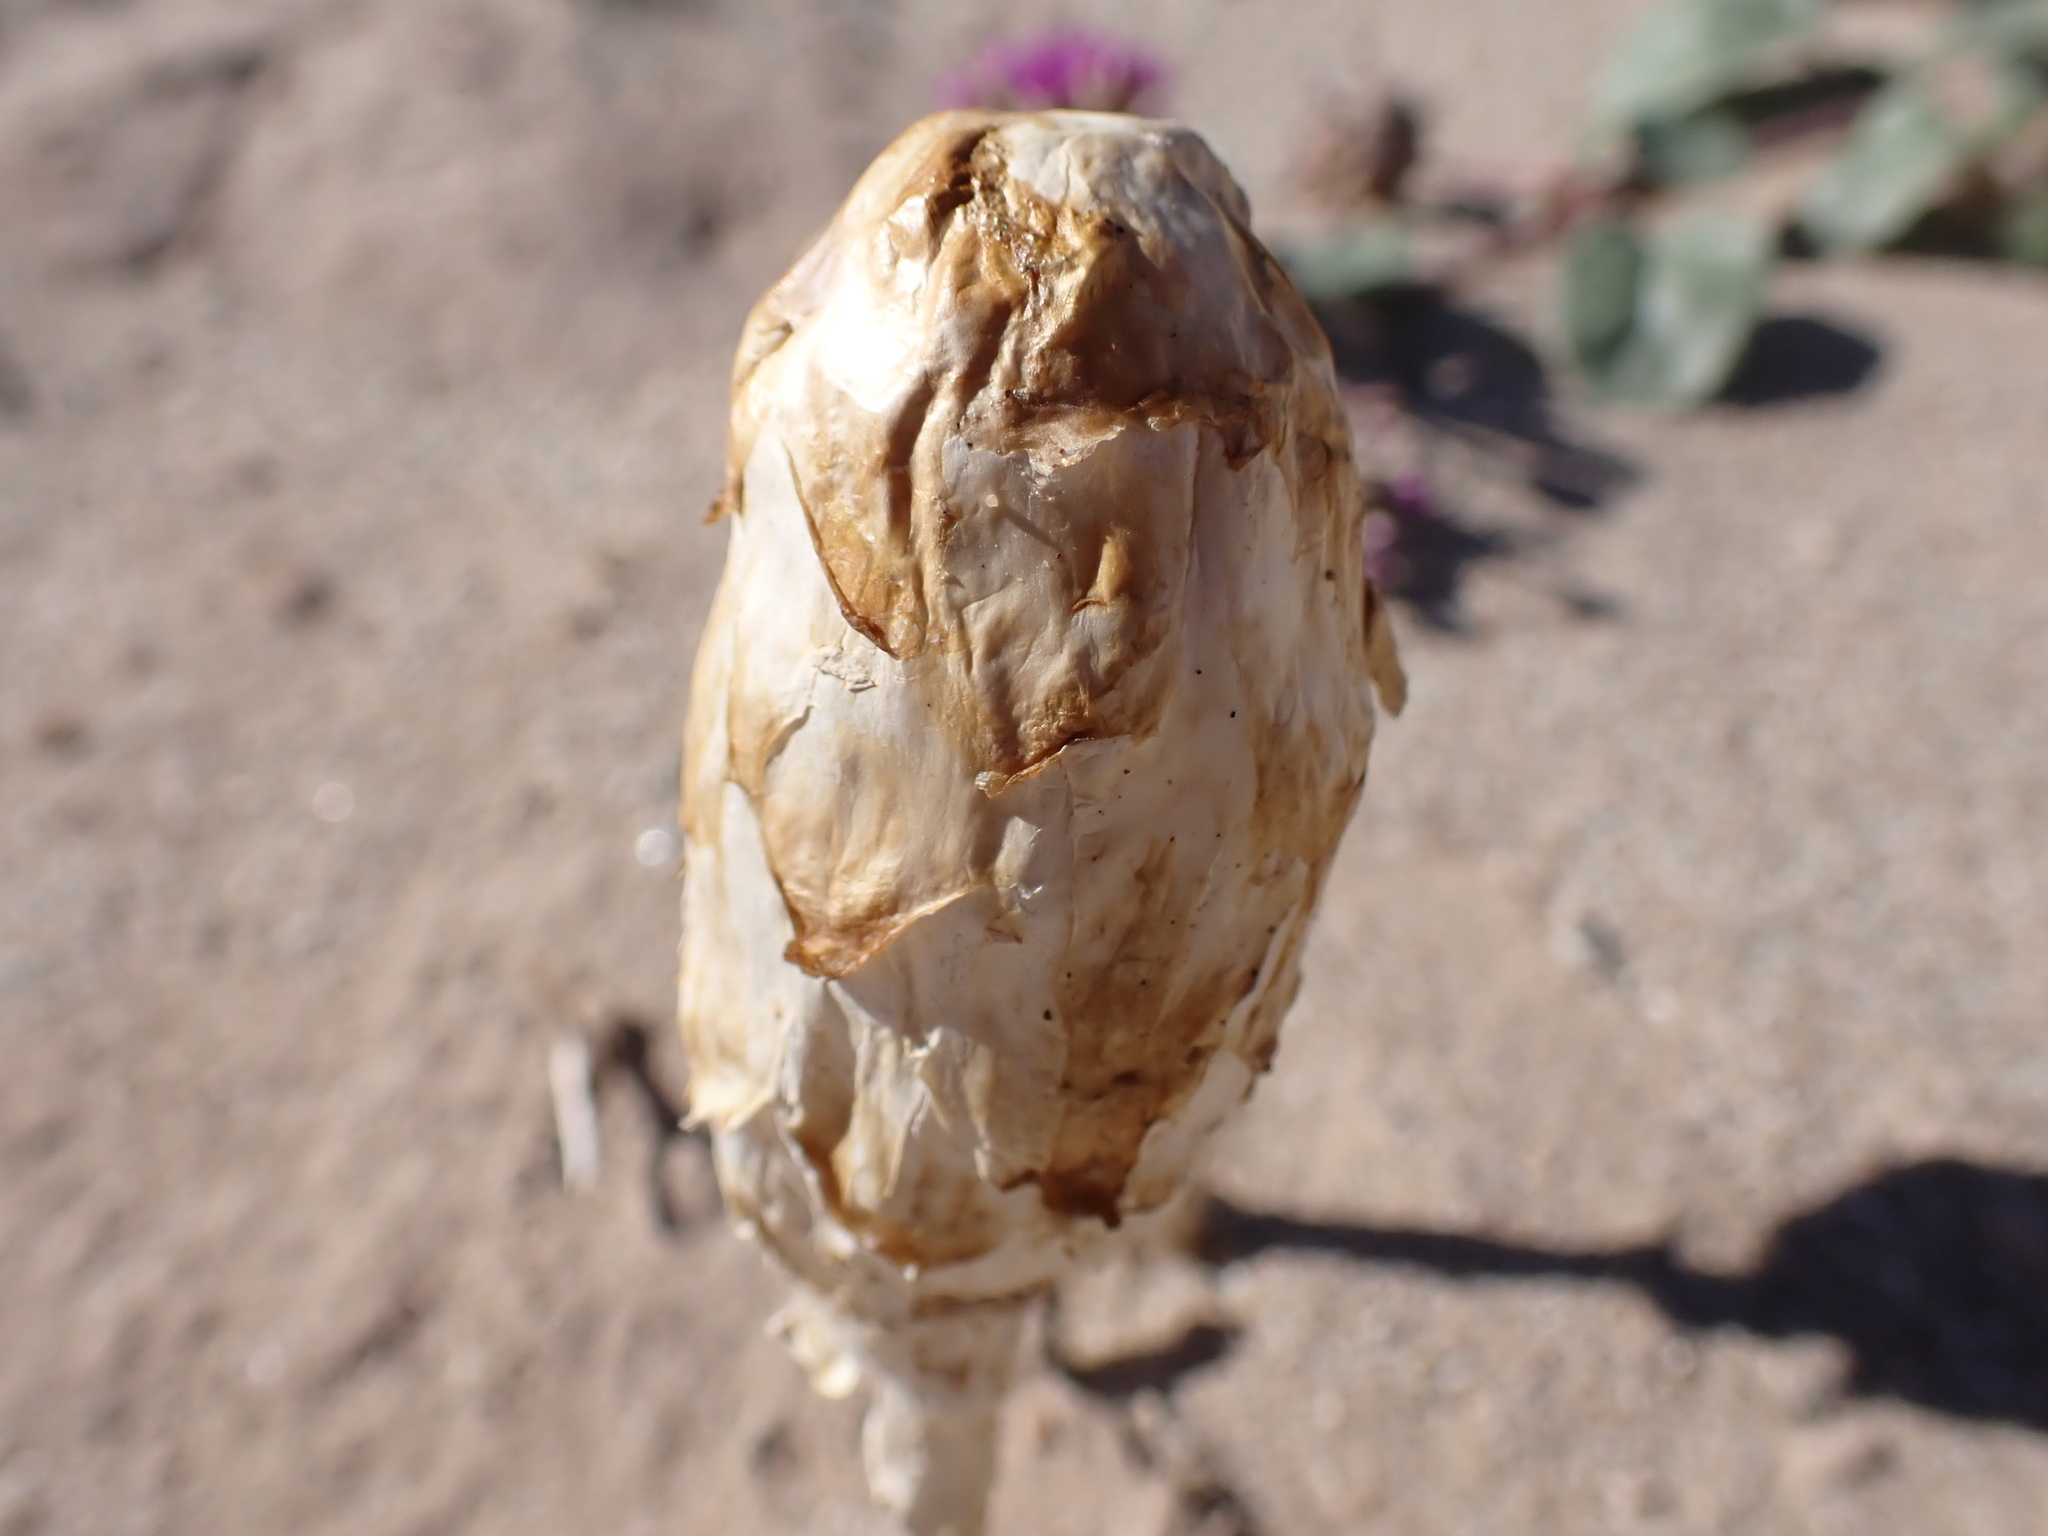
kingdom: Fungi
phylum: Basidiomycota
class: Agaricomycetes
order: Agaricales
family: Agaricaceae
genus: Podaxis
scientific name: Podaxis pistillaris
